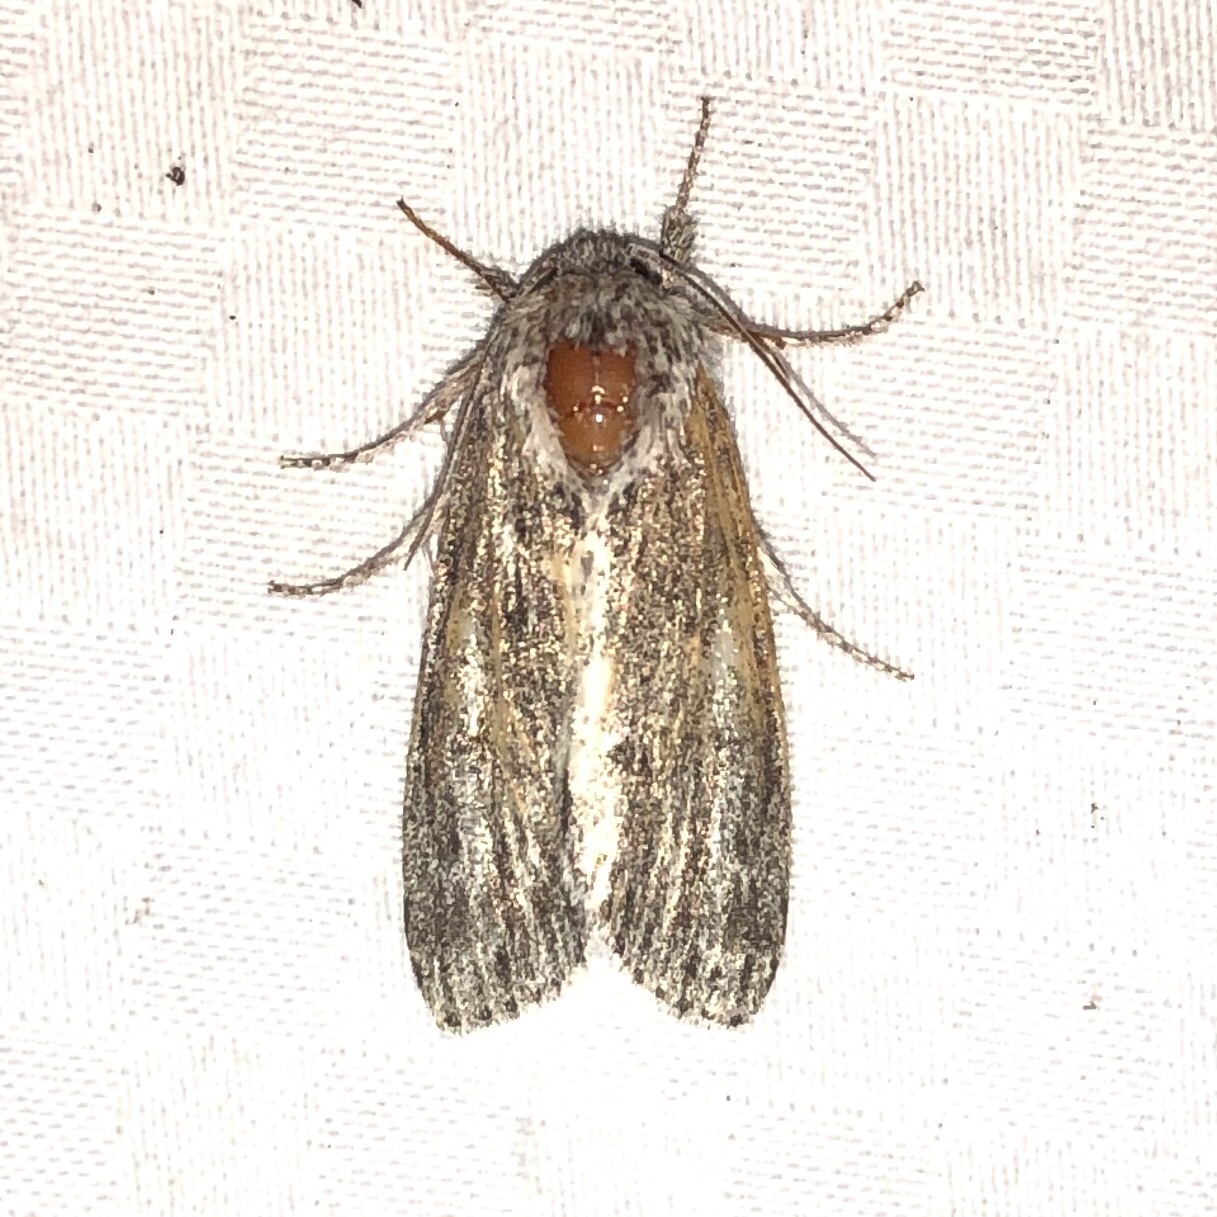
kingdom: Animalia
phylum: Arthropoda
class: Insecta
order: Lepidoptera
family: Noctuidae
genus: Acronicta
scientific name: Acronicta oblinita
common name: Smeared dagger
